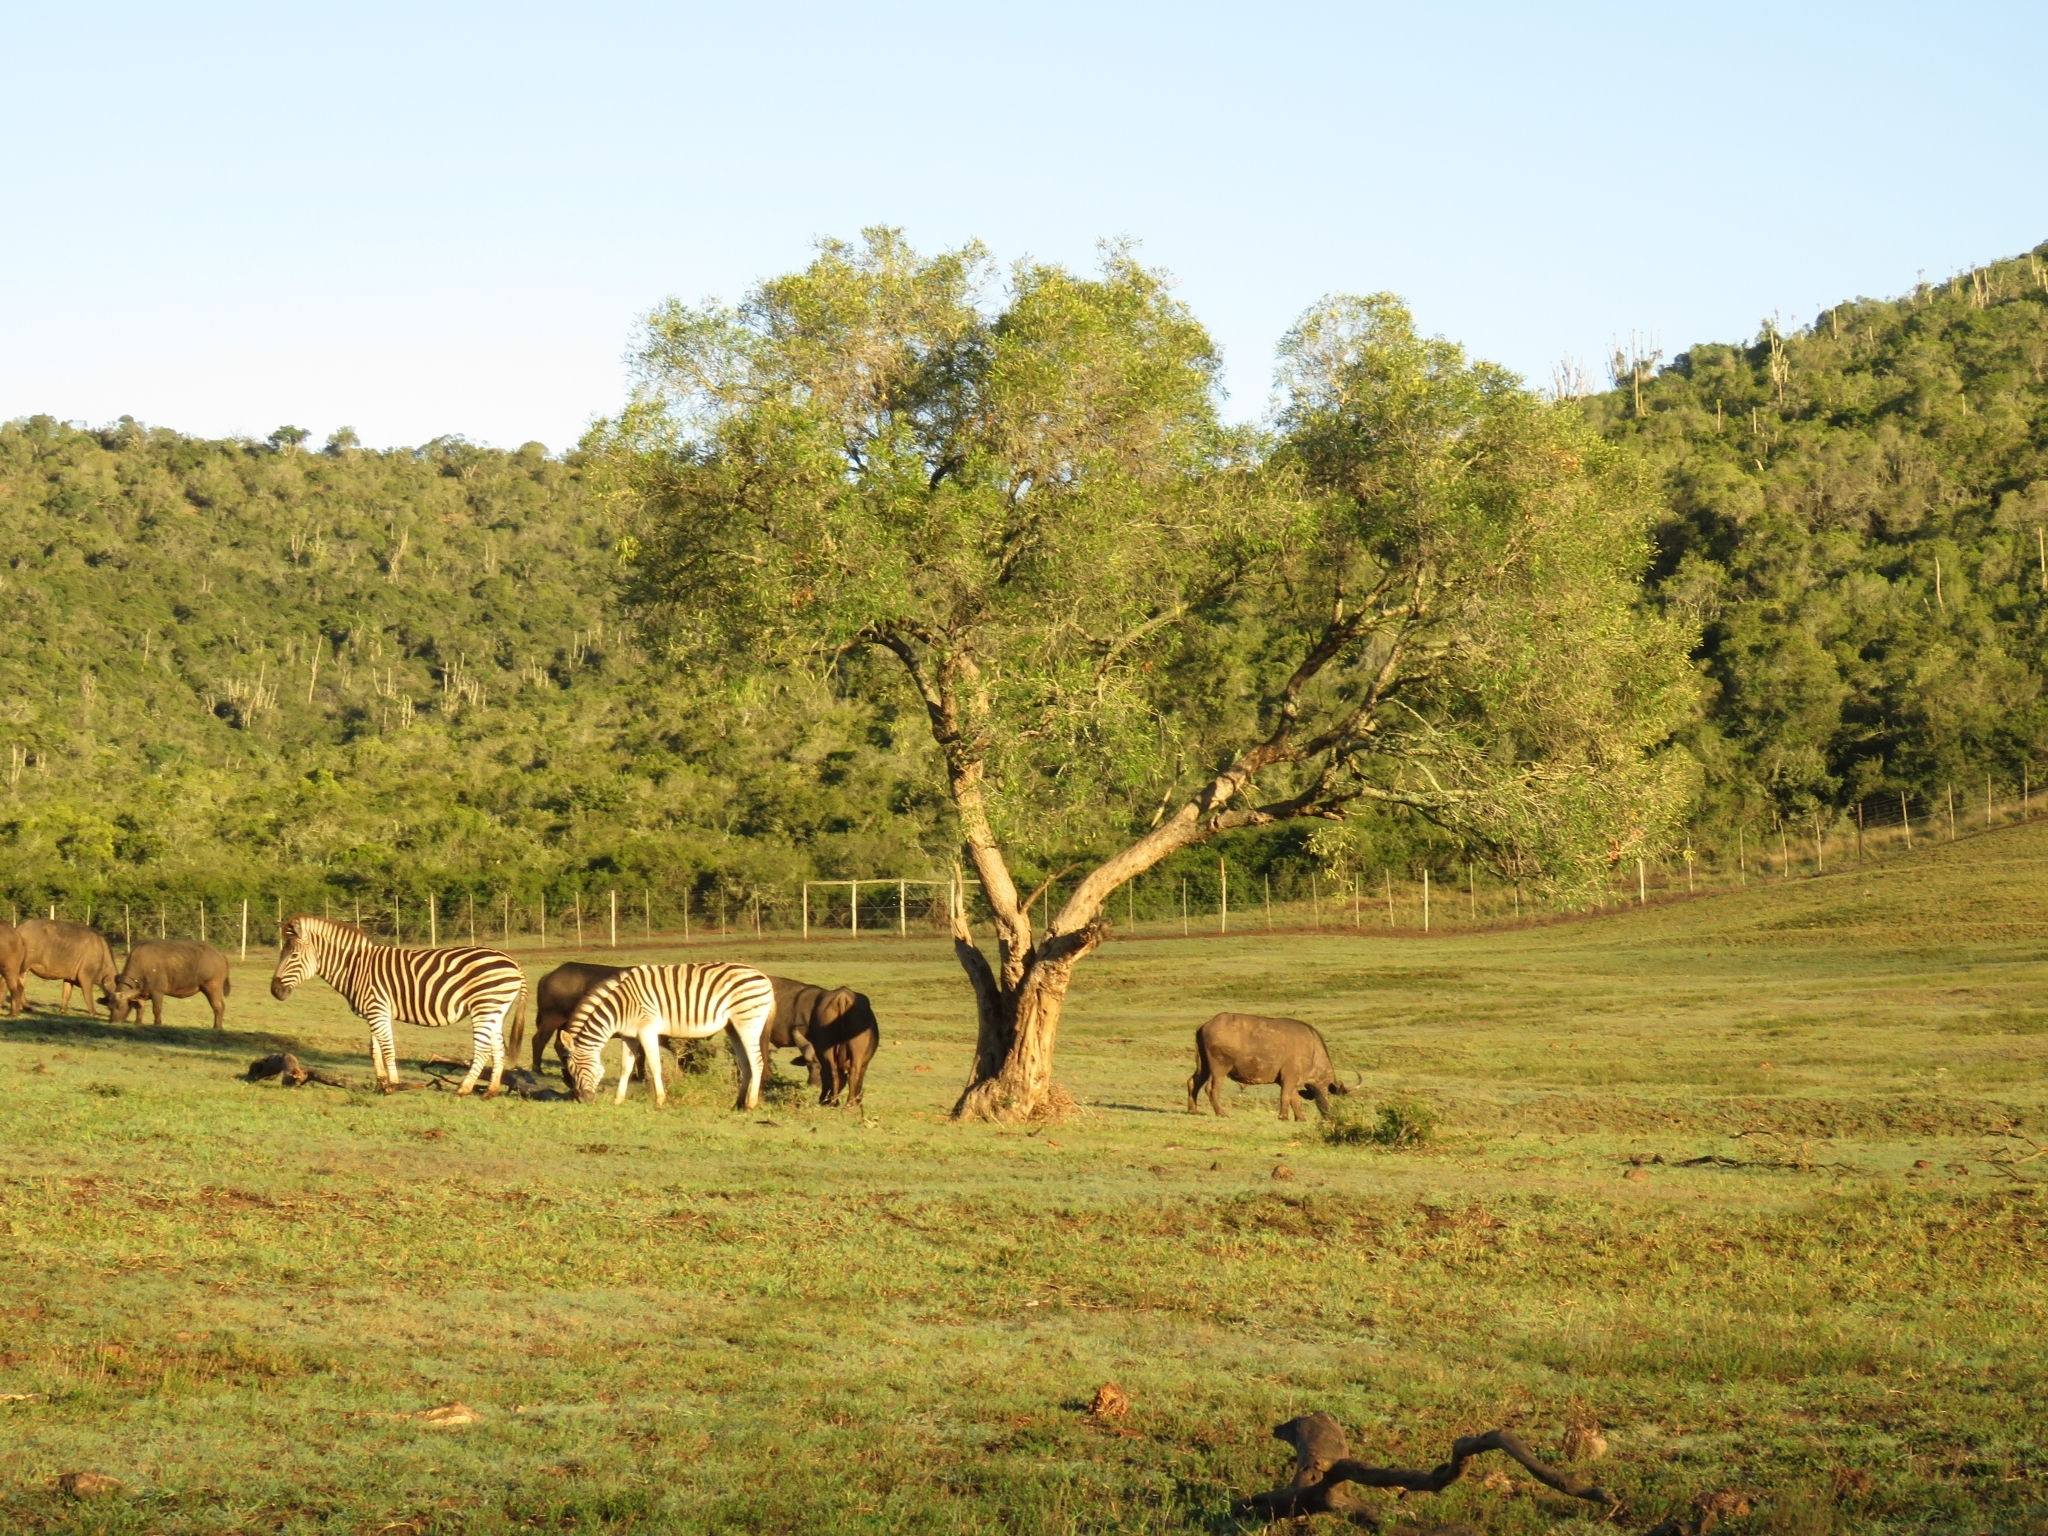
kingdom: Plantae
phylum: Tracheophyta
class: Magnoliopsida
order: Lamiales
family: Oleaceae
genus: Olea
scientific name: Olea europaea
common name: Olive
